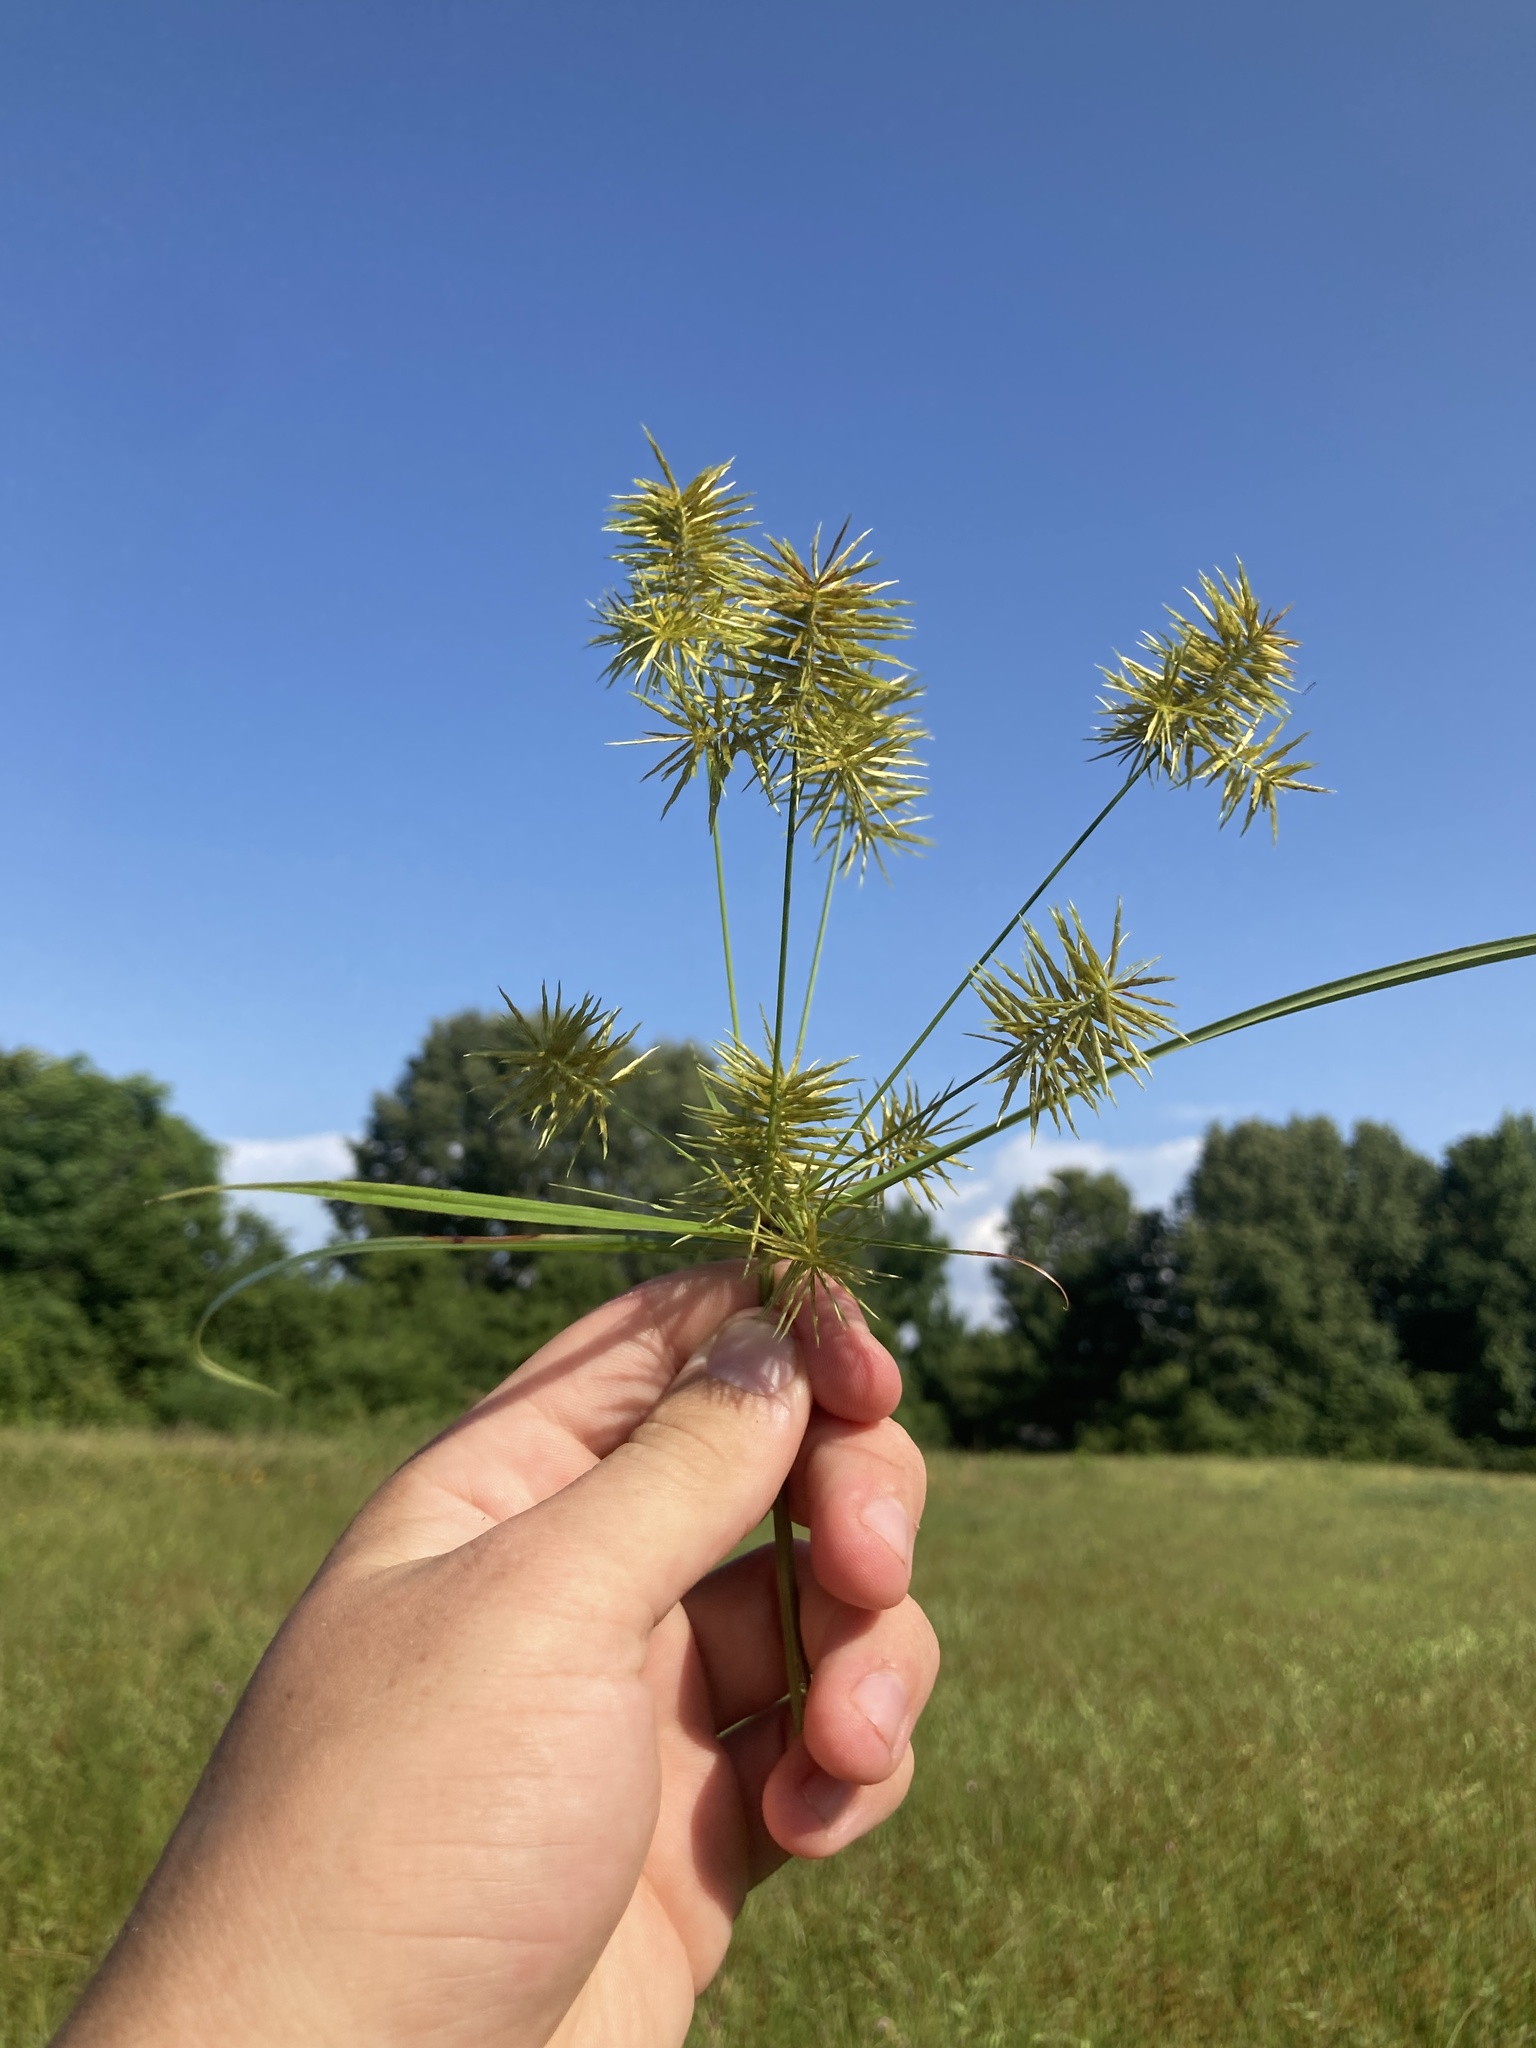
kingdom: Plantae
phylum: Tracheophyta
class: Liliopsida
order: Poales
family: Cyperaceae
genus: Cyperus
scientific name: Cyperus strigosus
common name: False nutsedge
